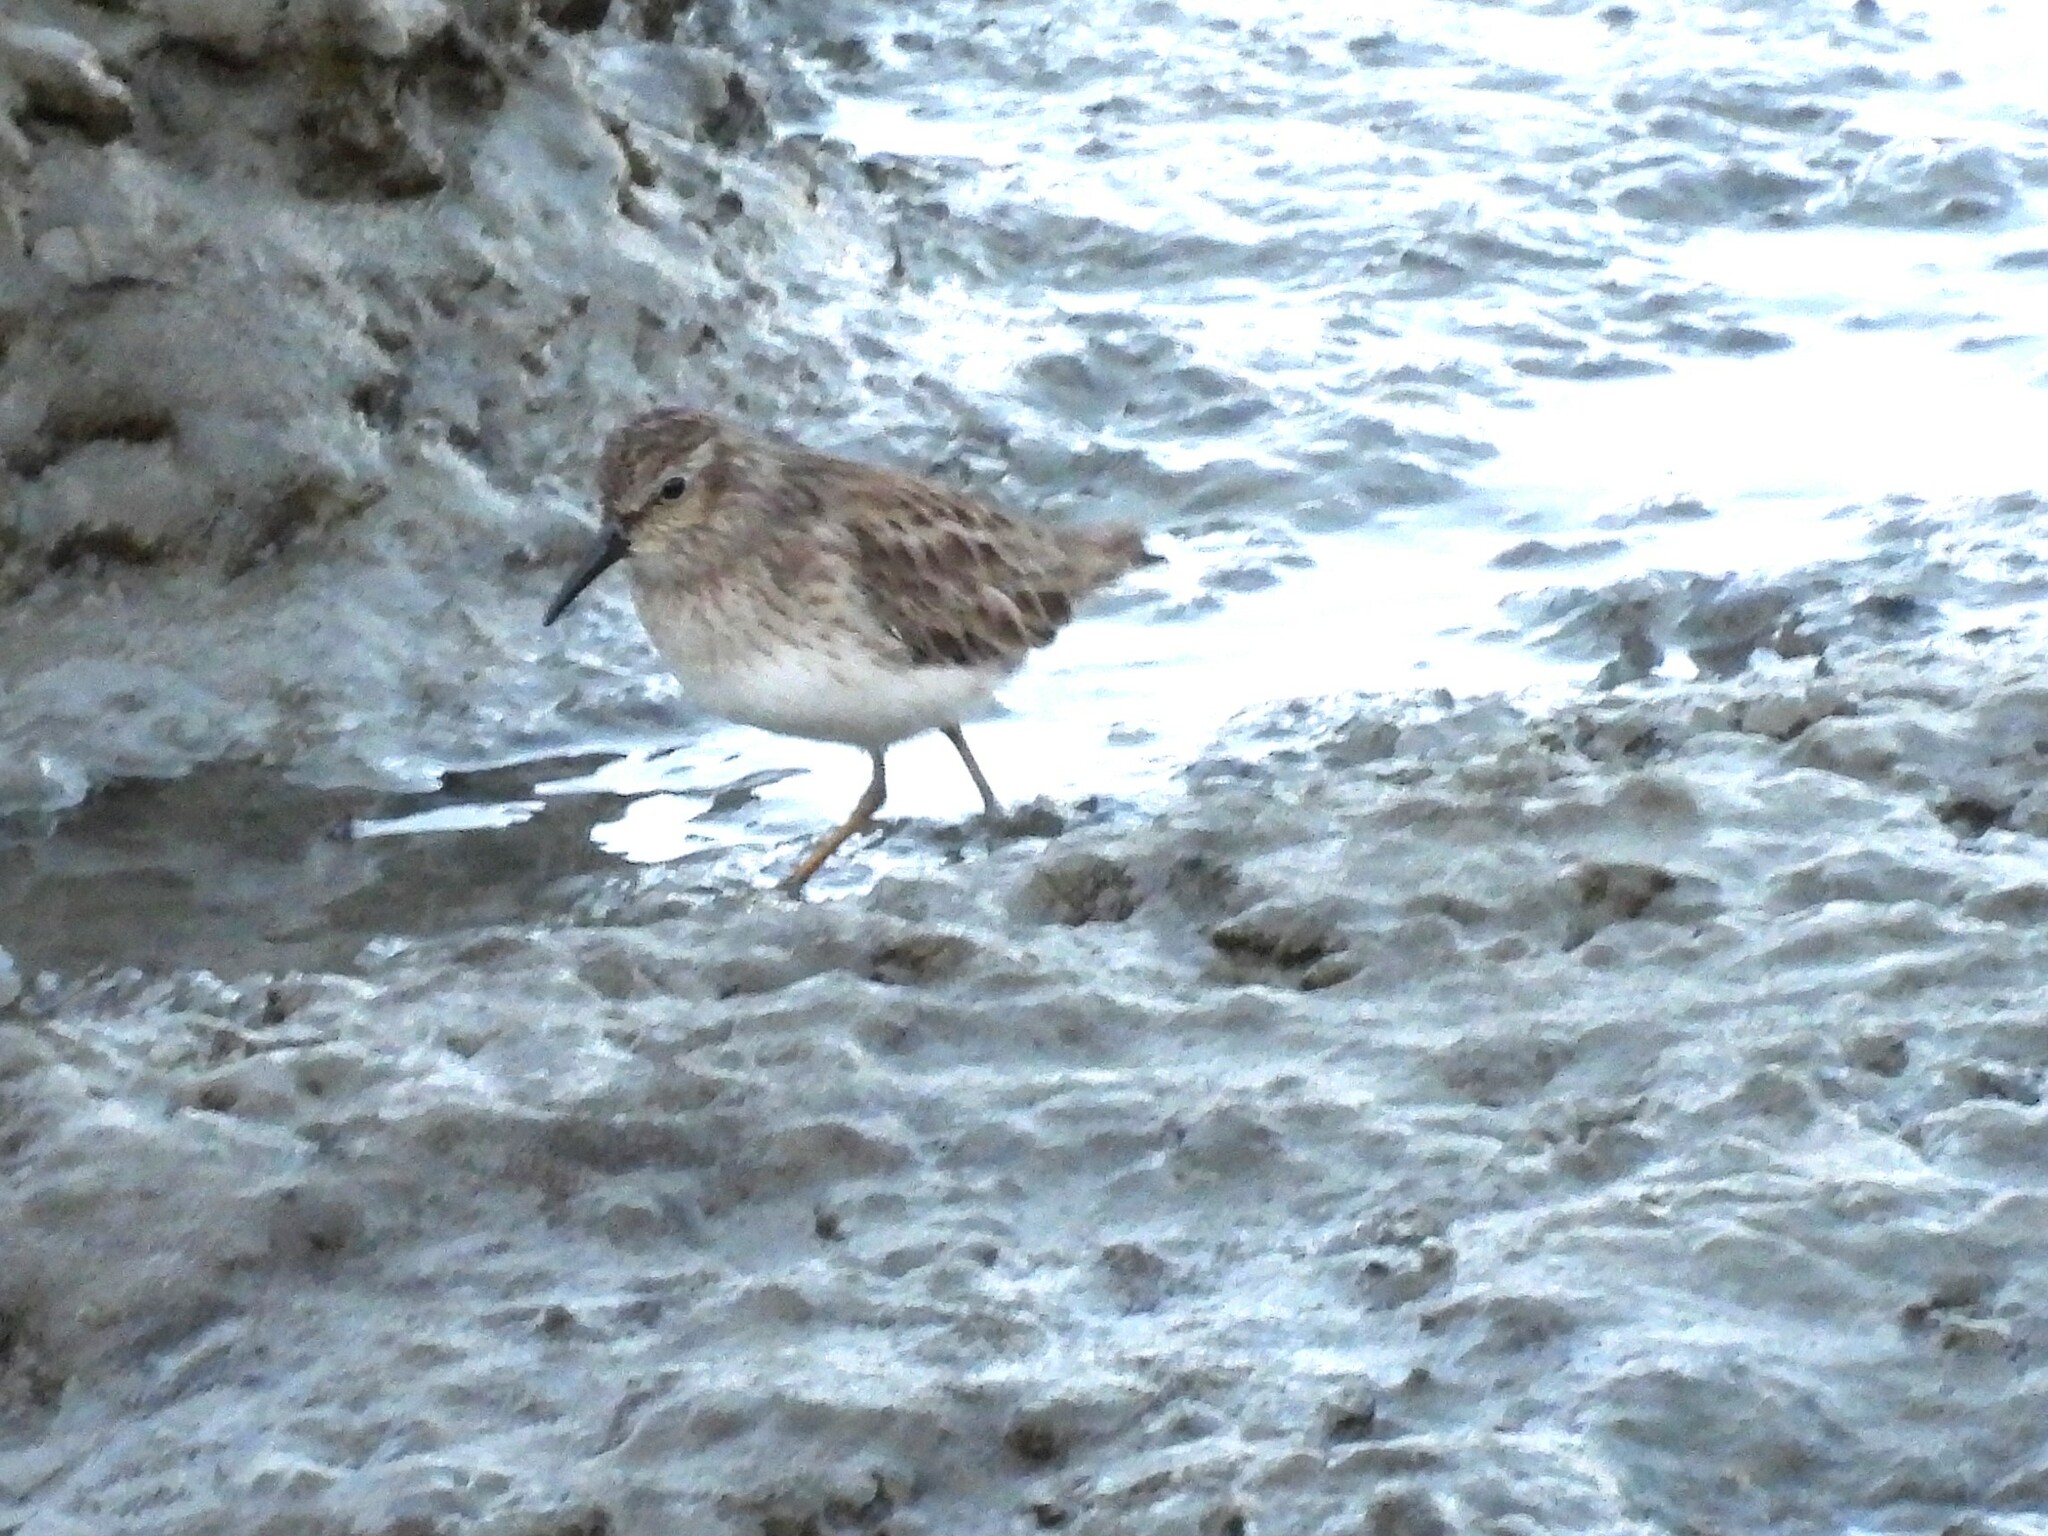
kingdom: Animalia
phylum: Chordata
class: Aves
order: Charadriiformes
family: Scolopacidae
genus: Calidris
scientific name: Calidris minutilla
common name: Least sandpiper
